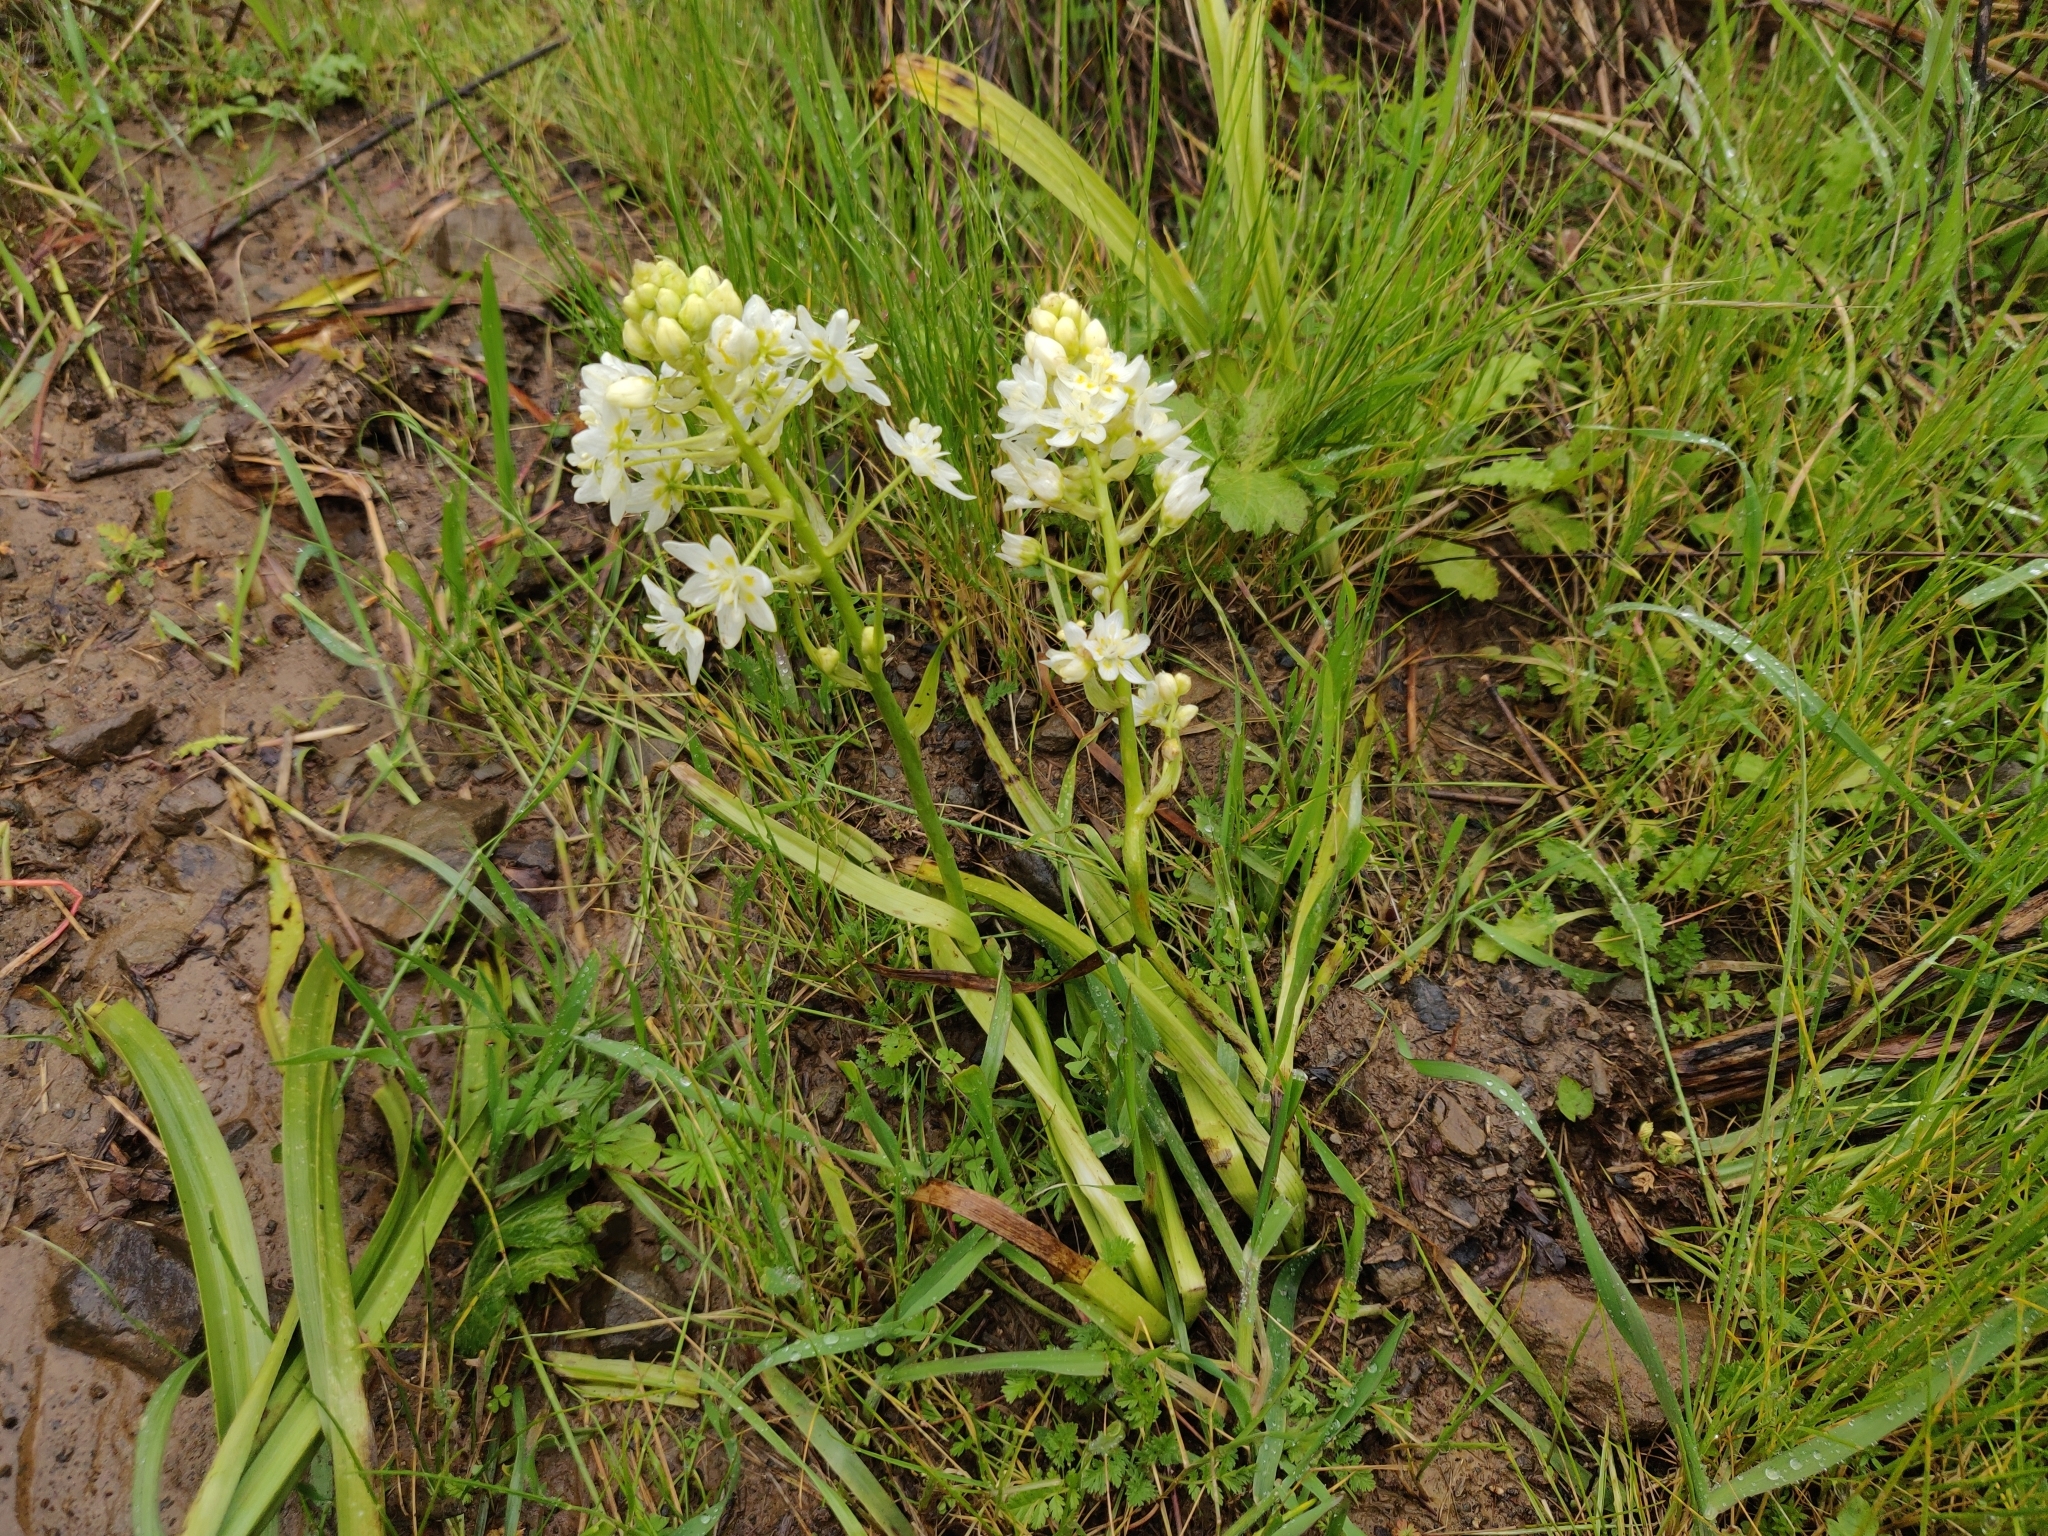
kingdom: Plantae
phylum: Tracheophyta
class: Liliopsida
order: Liliales
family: Melanthiaceae
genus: Toxicoscordion
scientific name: Toxicoscordion fremontii
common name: Fremont's death camas
